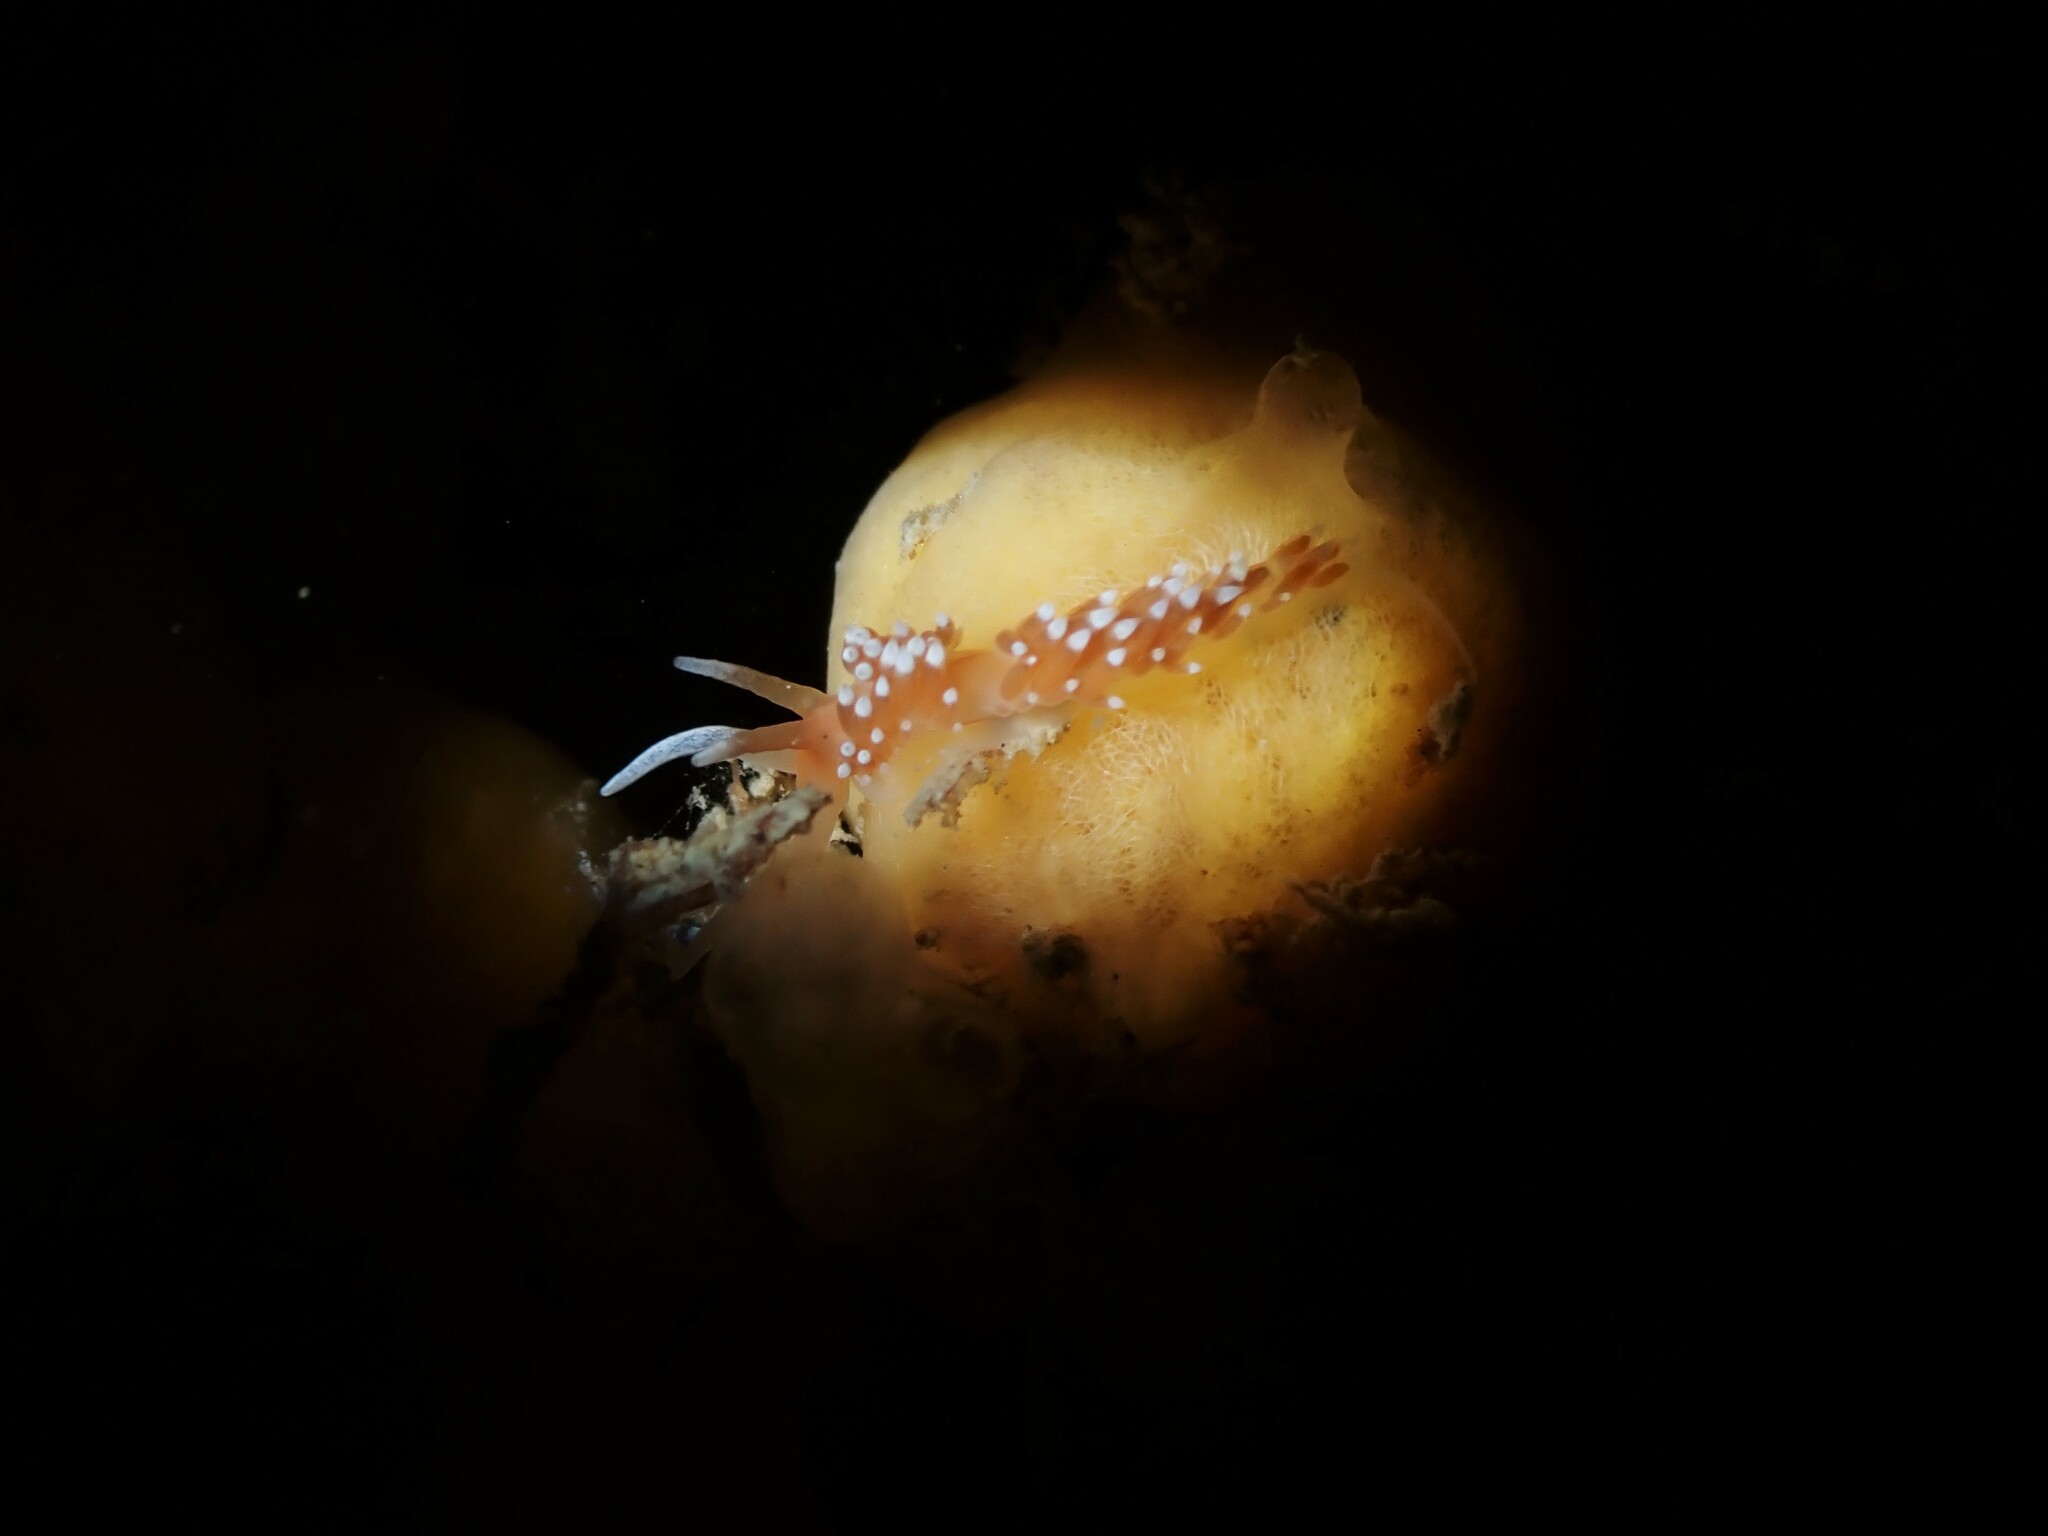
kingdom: Animalia
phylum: Mollusca
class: Gastropoda
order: Nudibranchia
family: Facelinidae
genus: Phidiana
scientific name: Phidiana milleri
